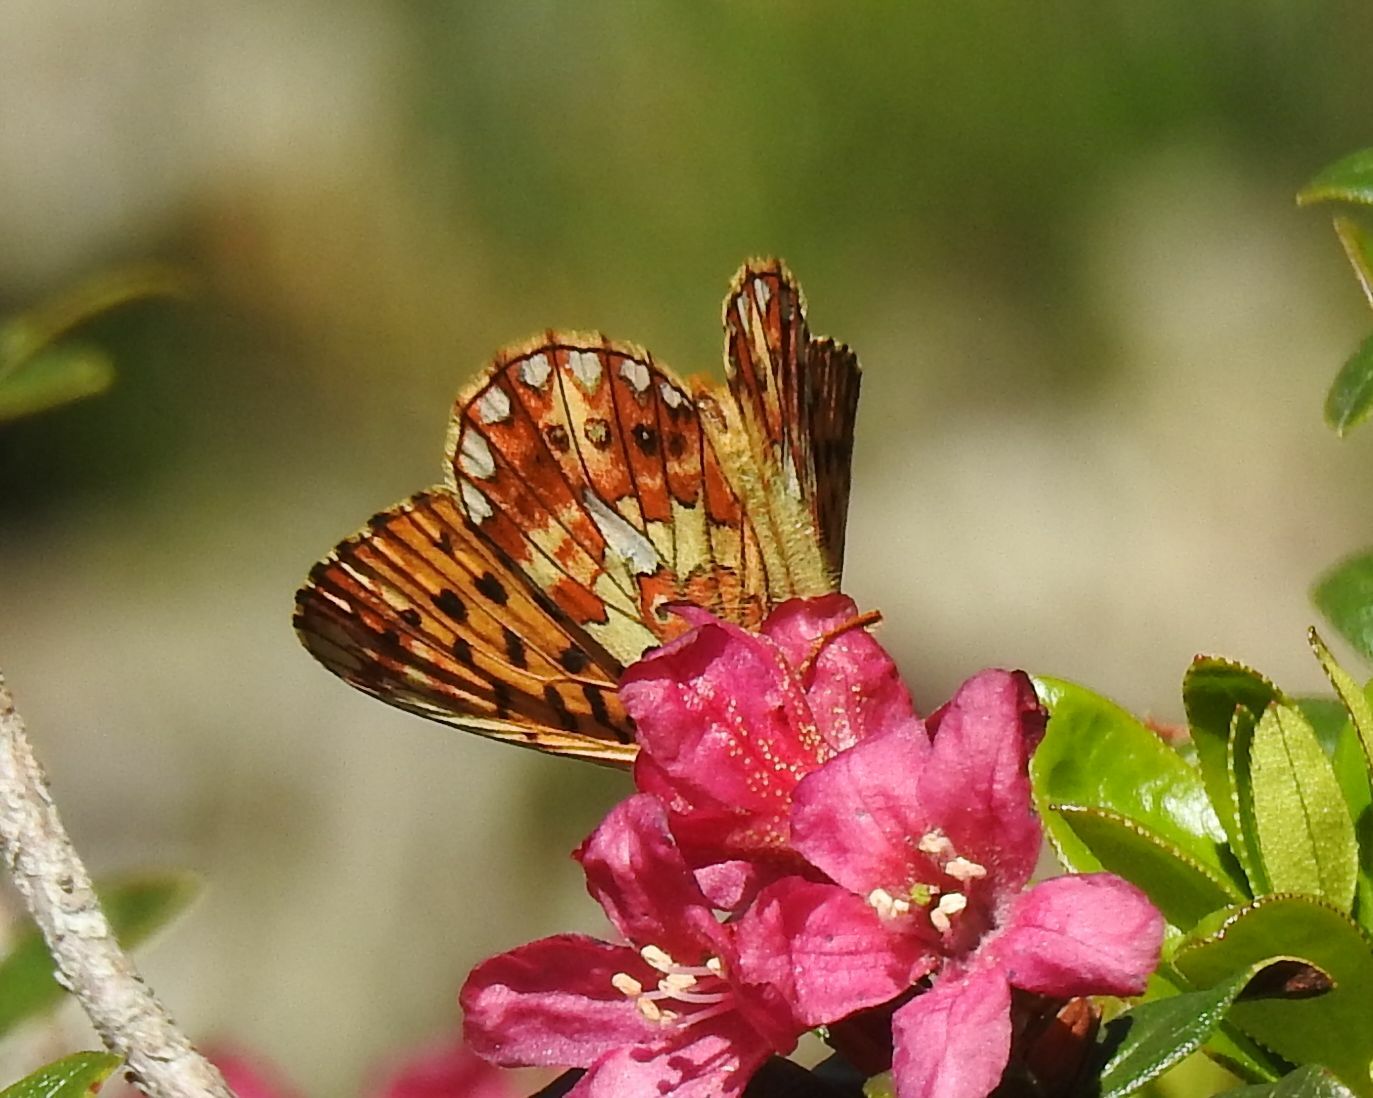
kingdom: Animalia
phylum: Arthropoda
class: Insecta
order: Lepidoptera
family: Nymphalidae
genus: Clossiana
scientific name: Clossiana euphrosyne
